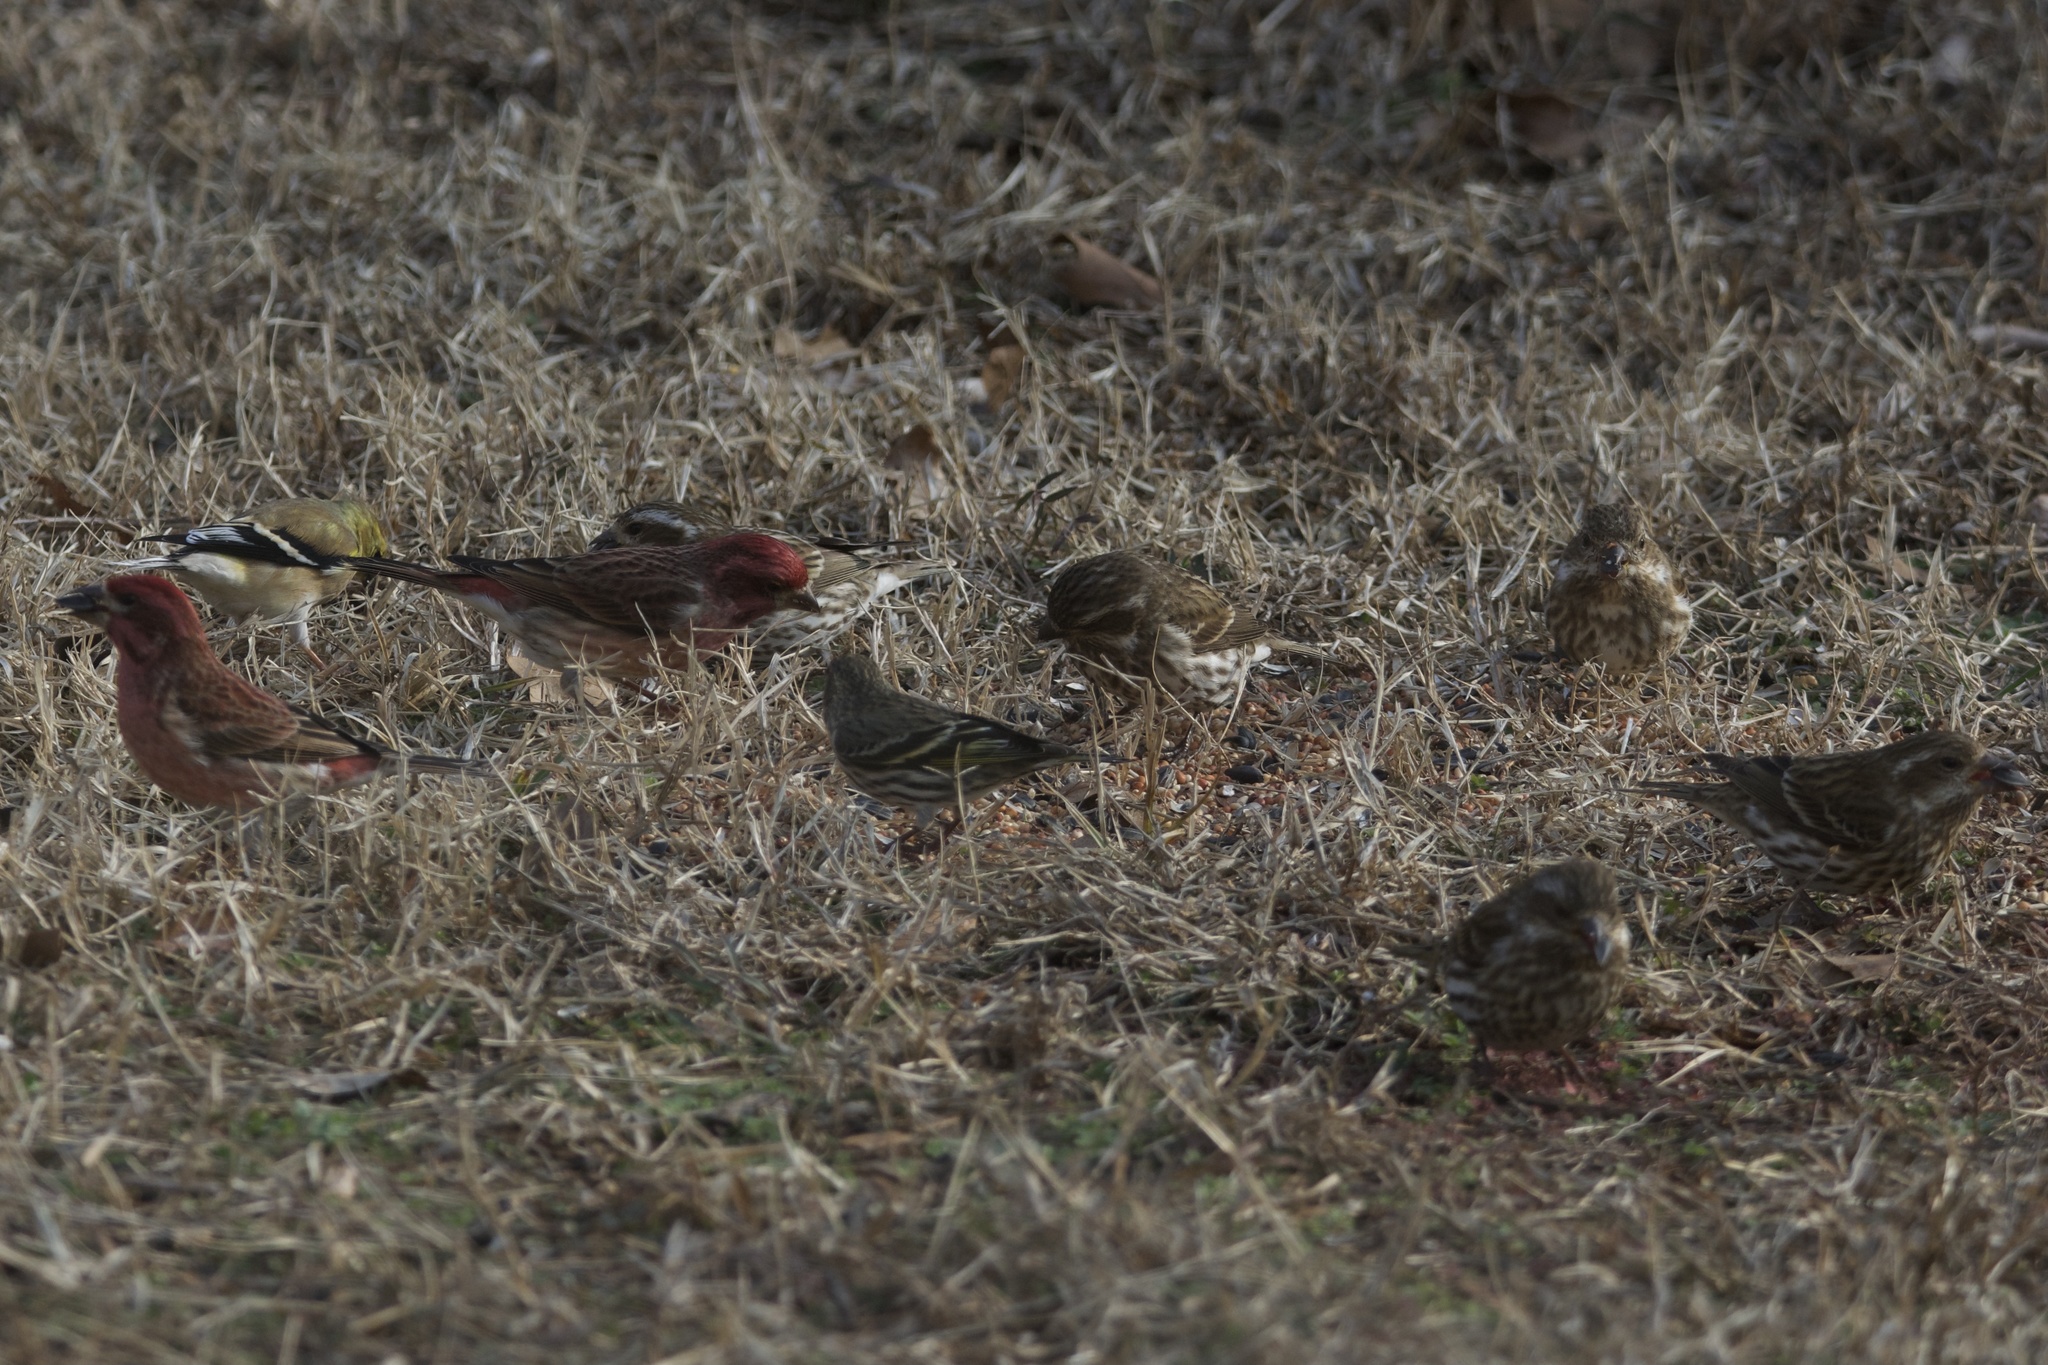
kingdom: Animalia
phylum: Chordata
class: Aves
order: Passeriformes
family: Fringillidae
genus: Haemorhous
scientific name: Haemorhous purpureus
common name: Purple finch
